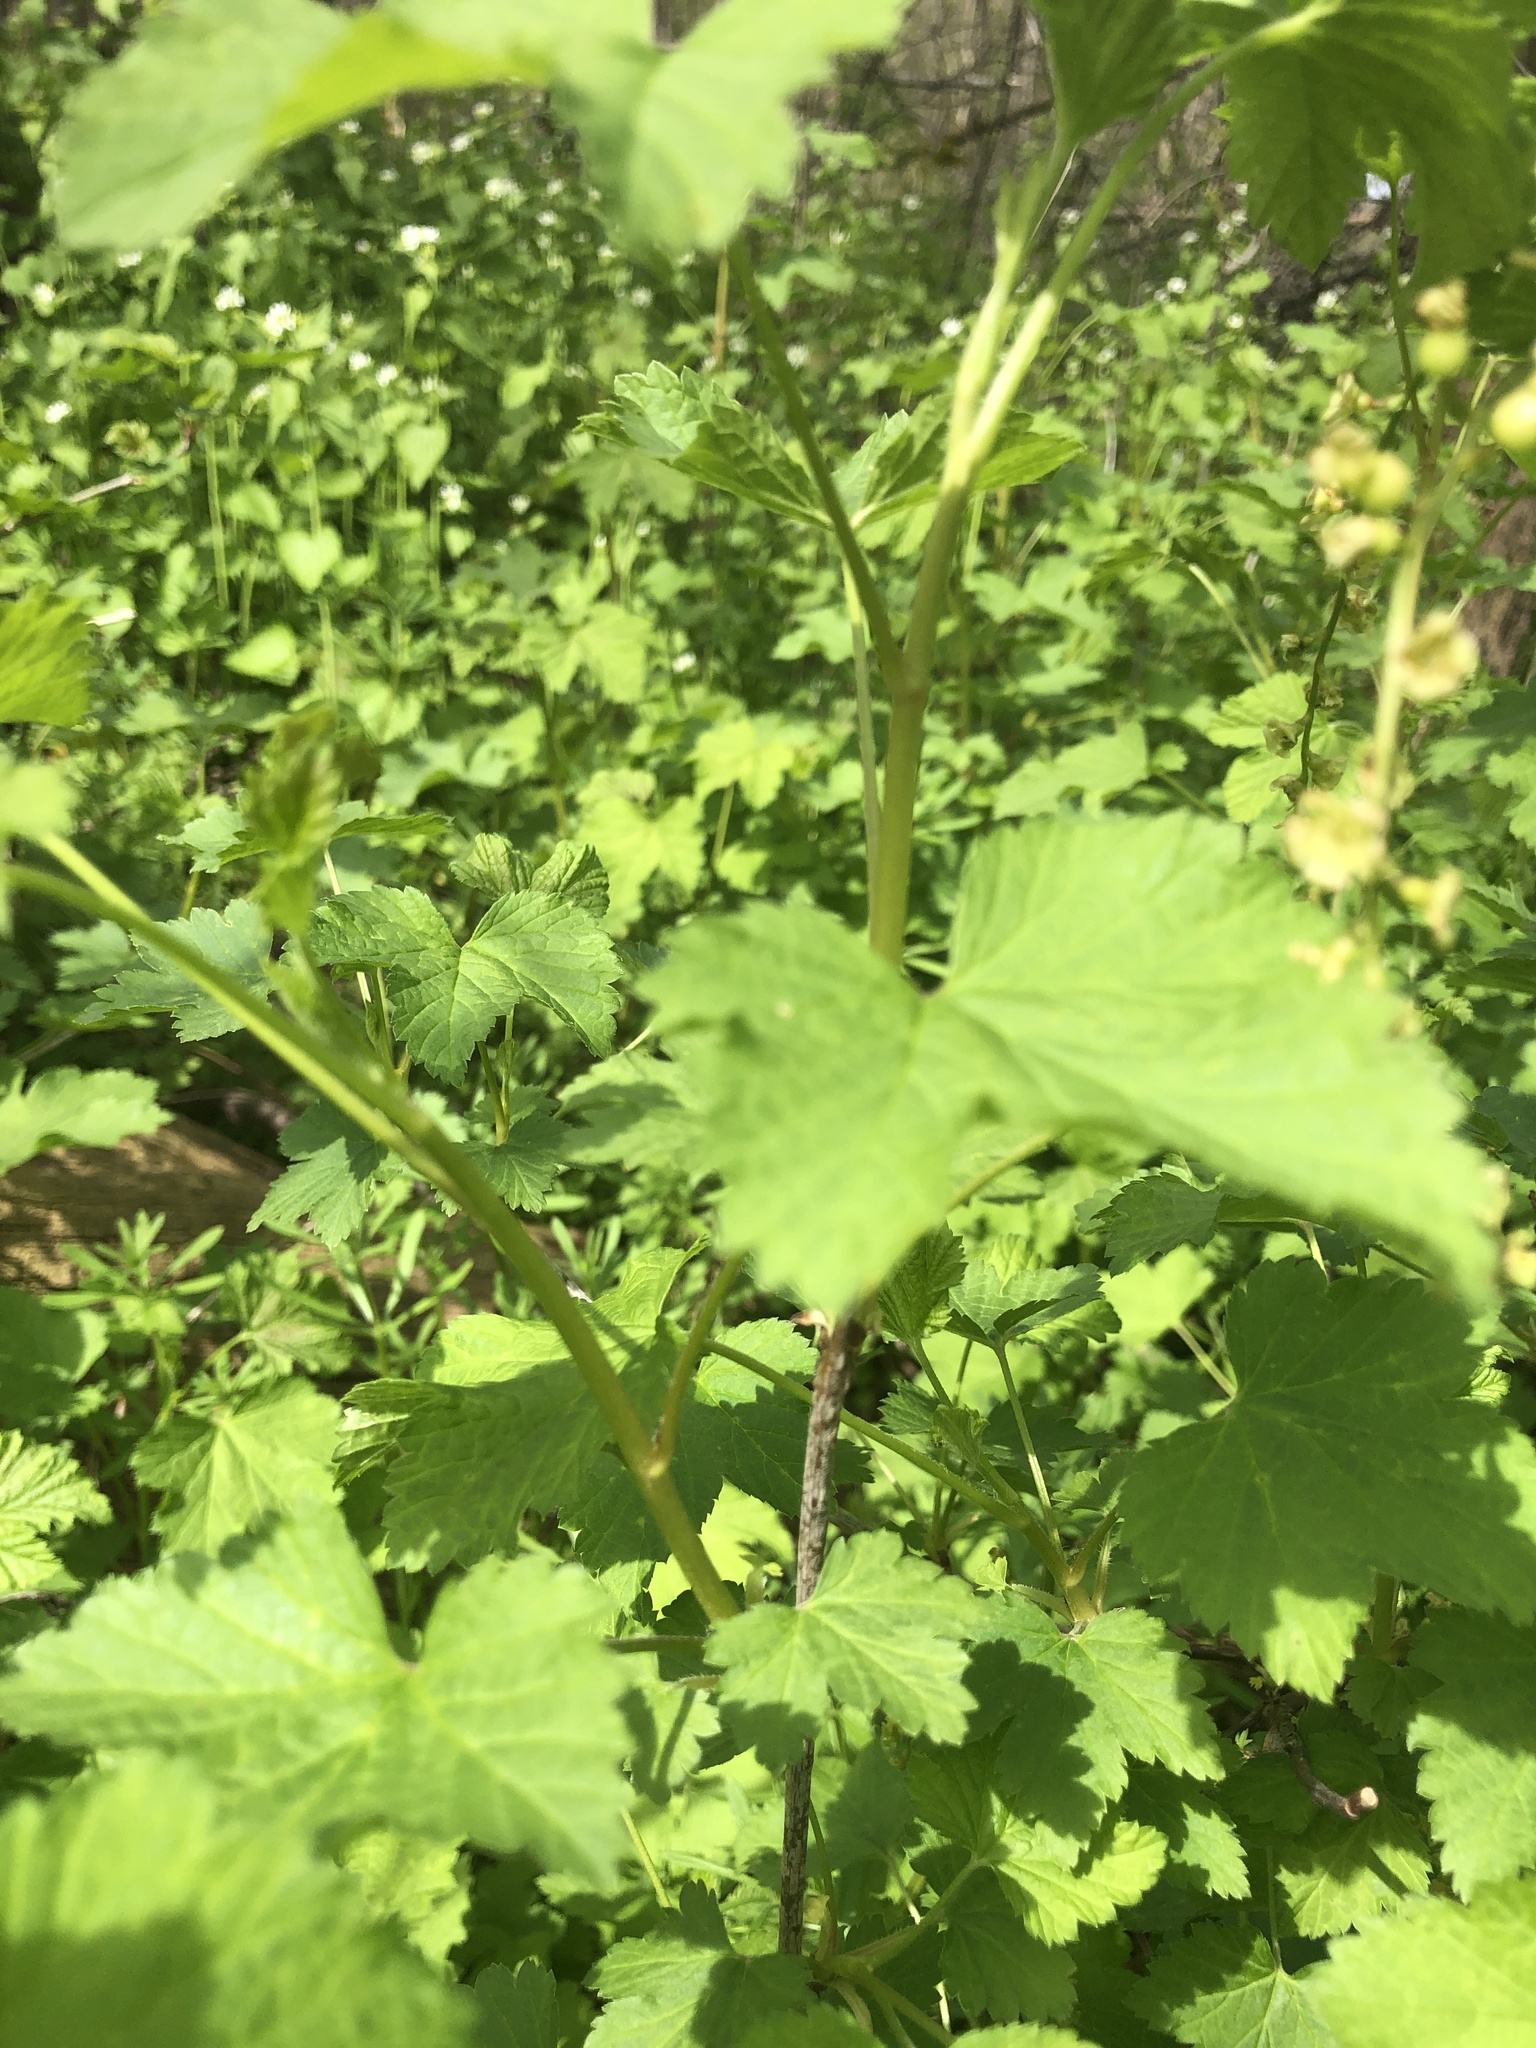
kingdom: Plantae
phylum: Tracheophyta
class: Magnoliopsida
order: Saxifragales
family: Grossulariaceae
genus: Ribes
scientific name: Ribes rubrum
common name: Red currant
